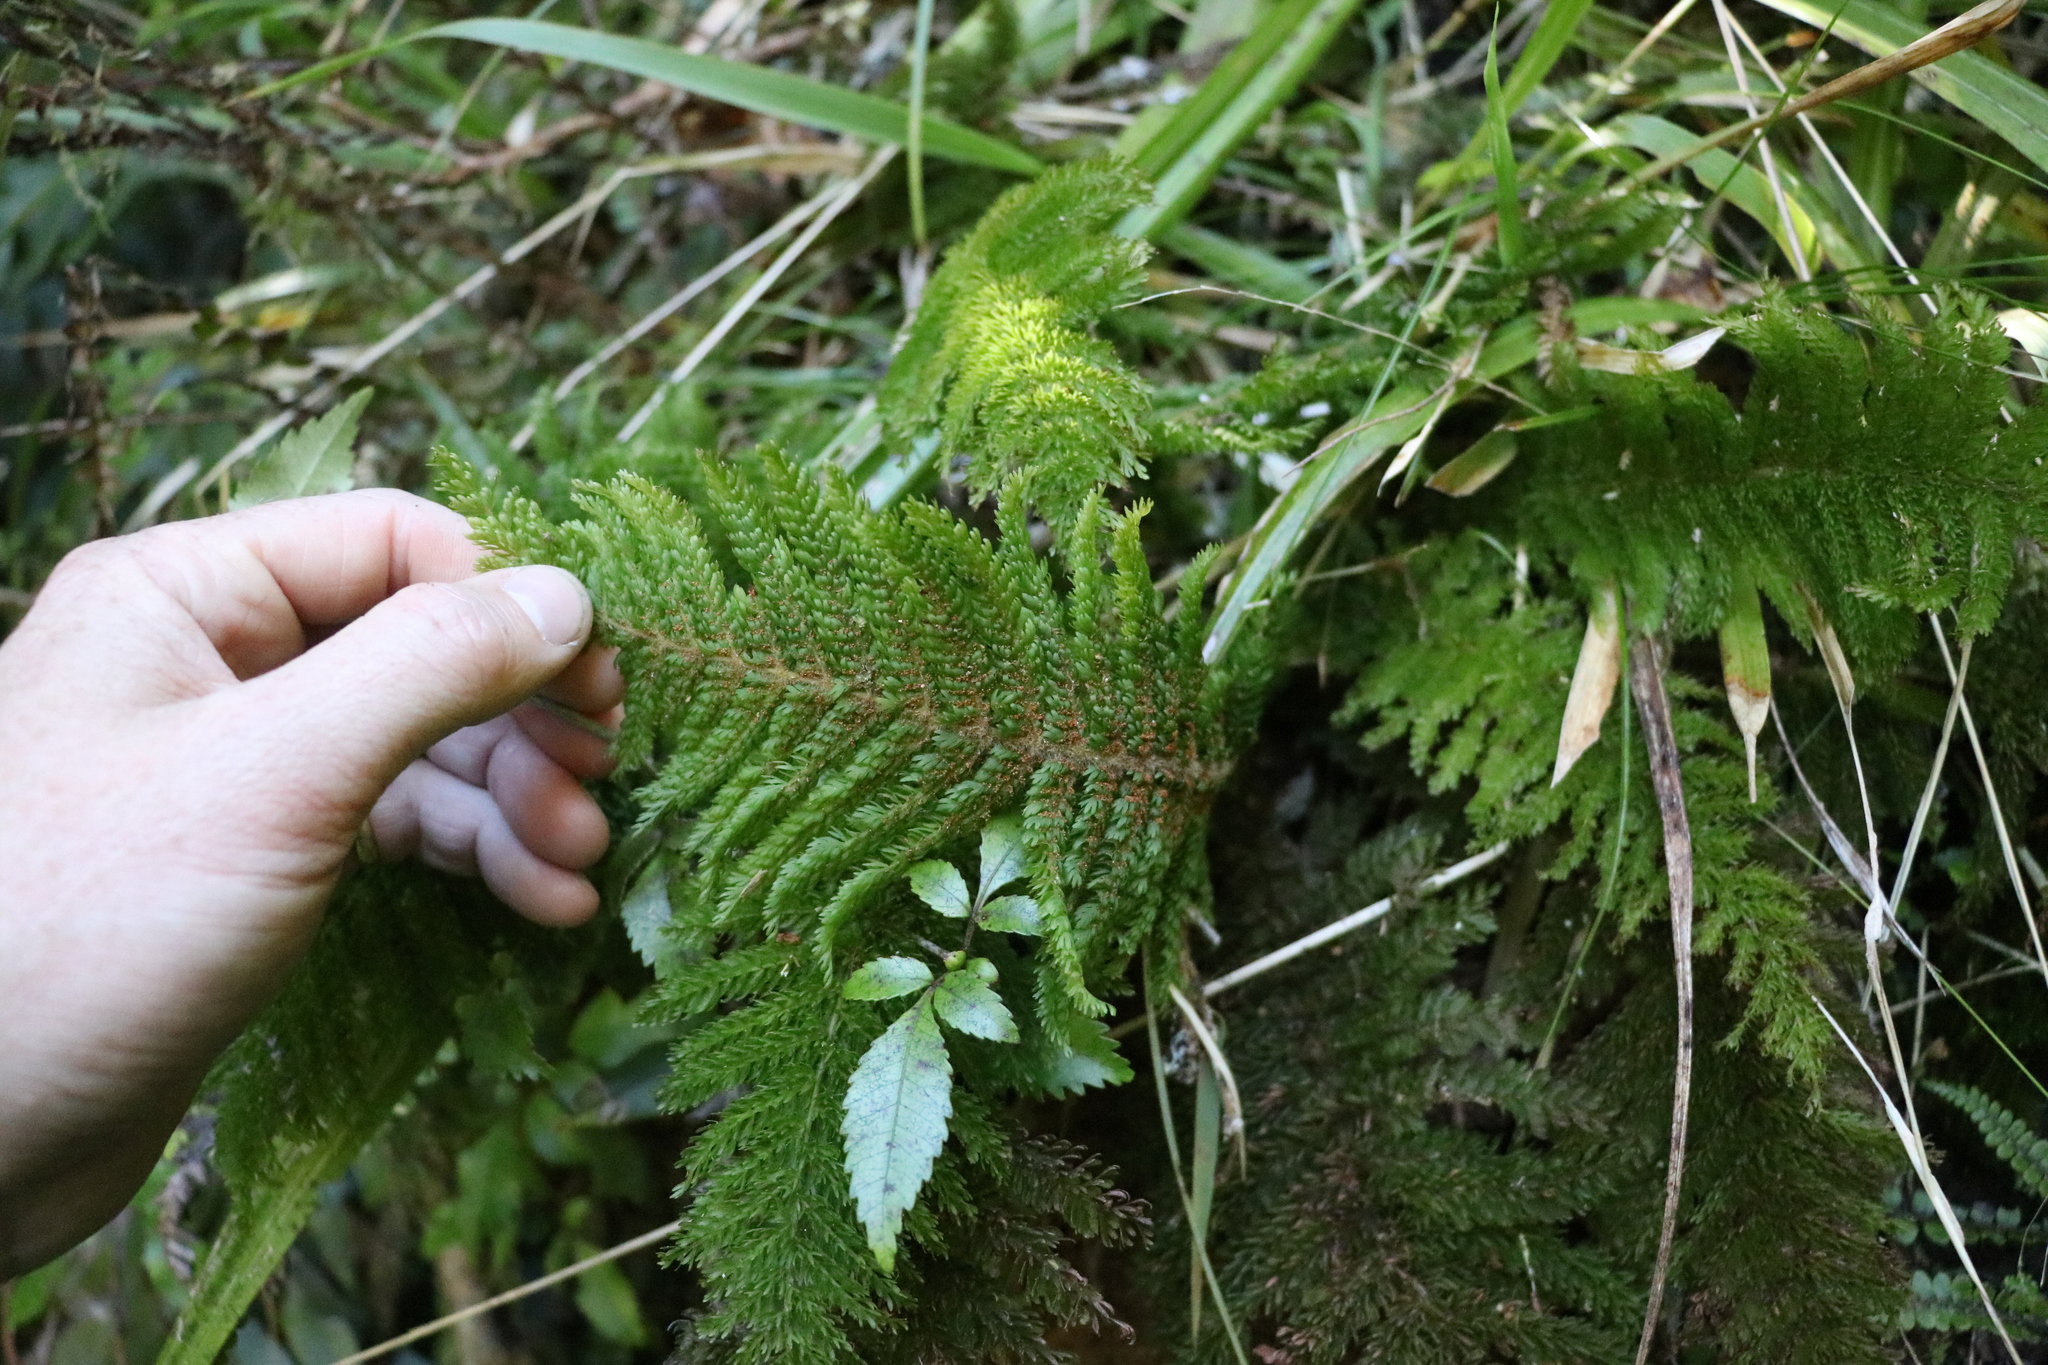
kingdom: Plantae
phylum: Tracheophyta
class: Polypodiopsida
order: Osmundales
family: Osmundaceae
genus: Leptopteris
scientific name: Leptopteris superba
